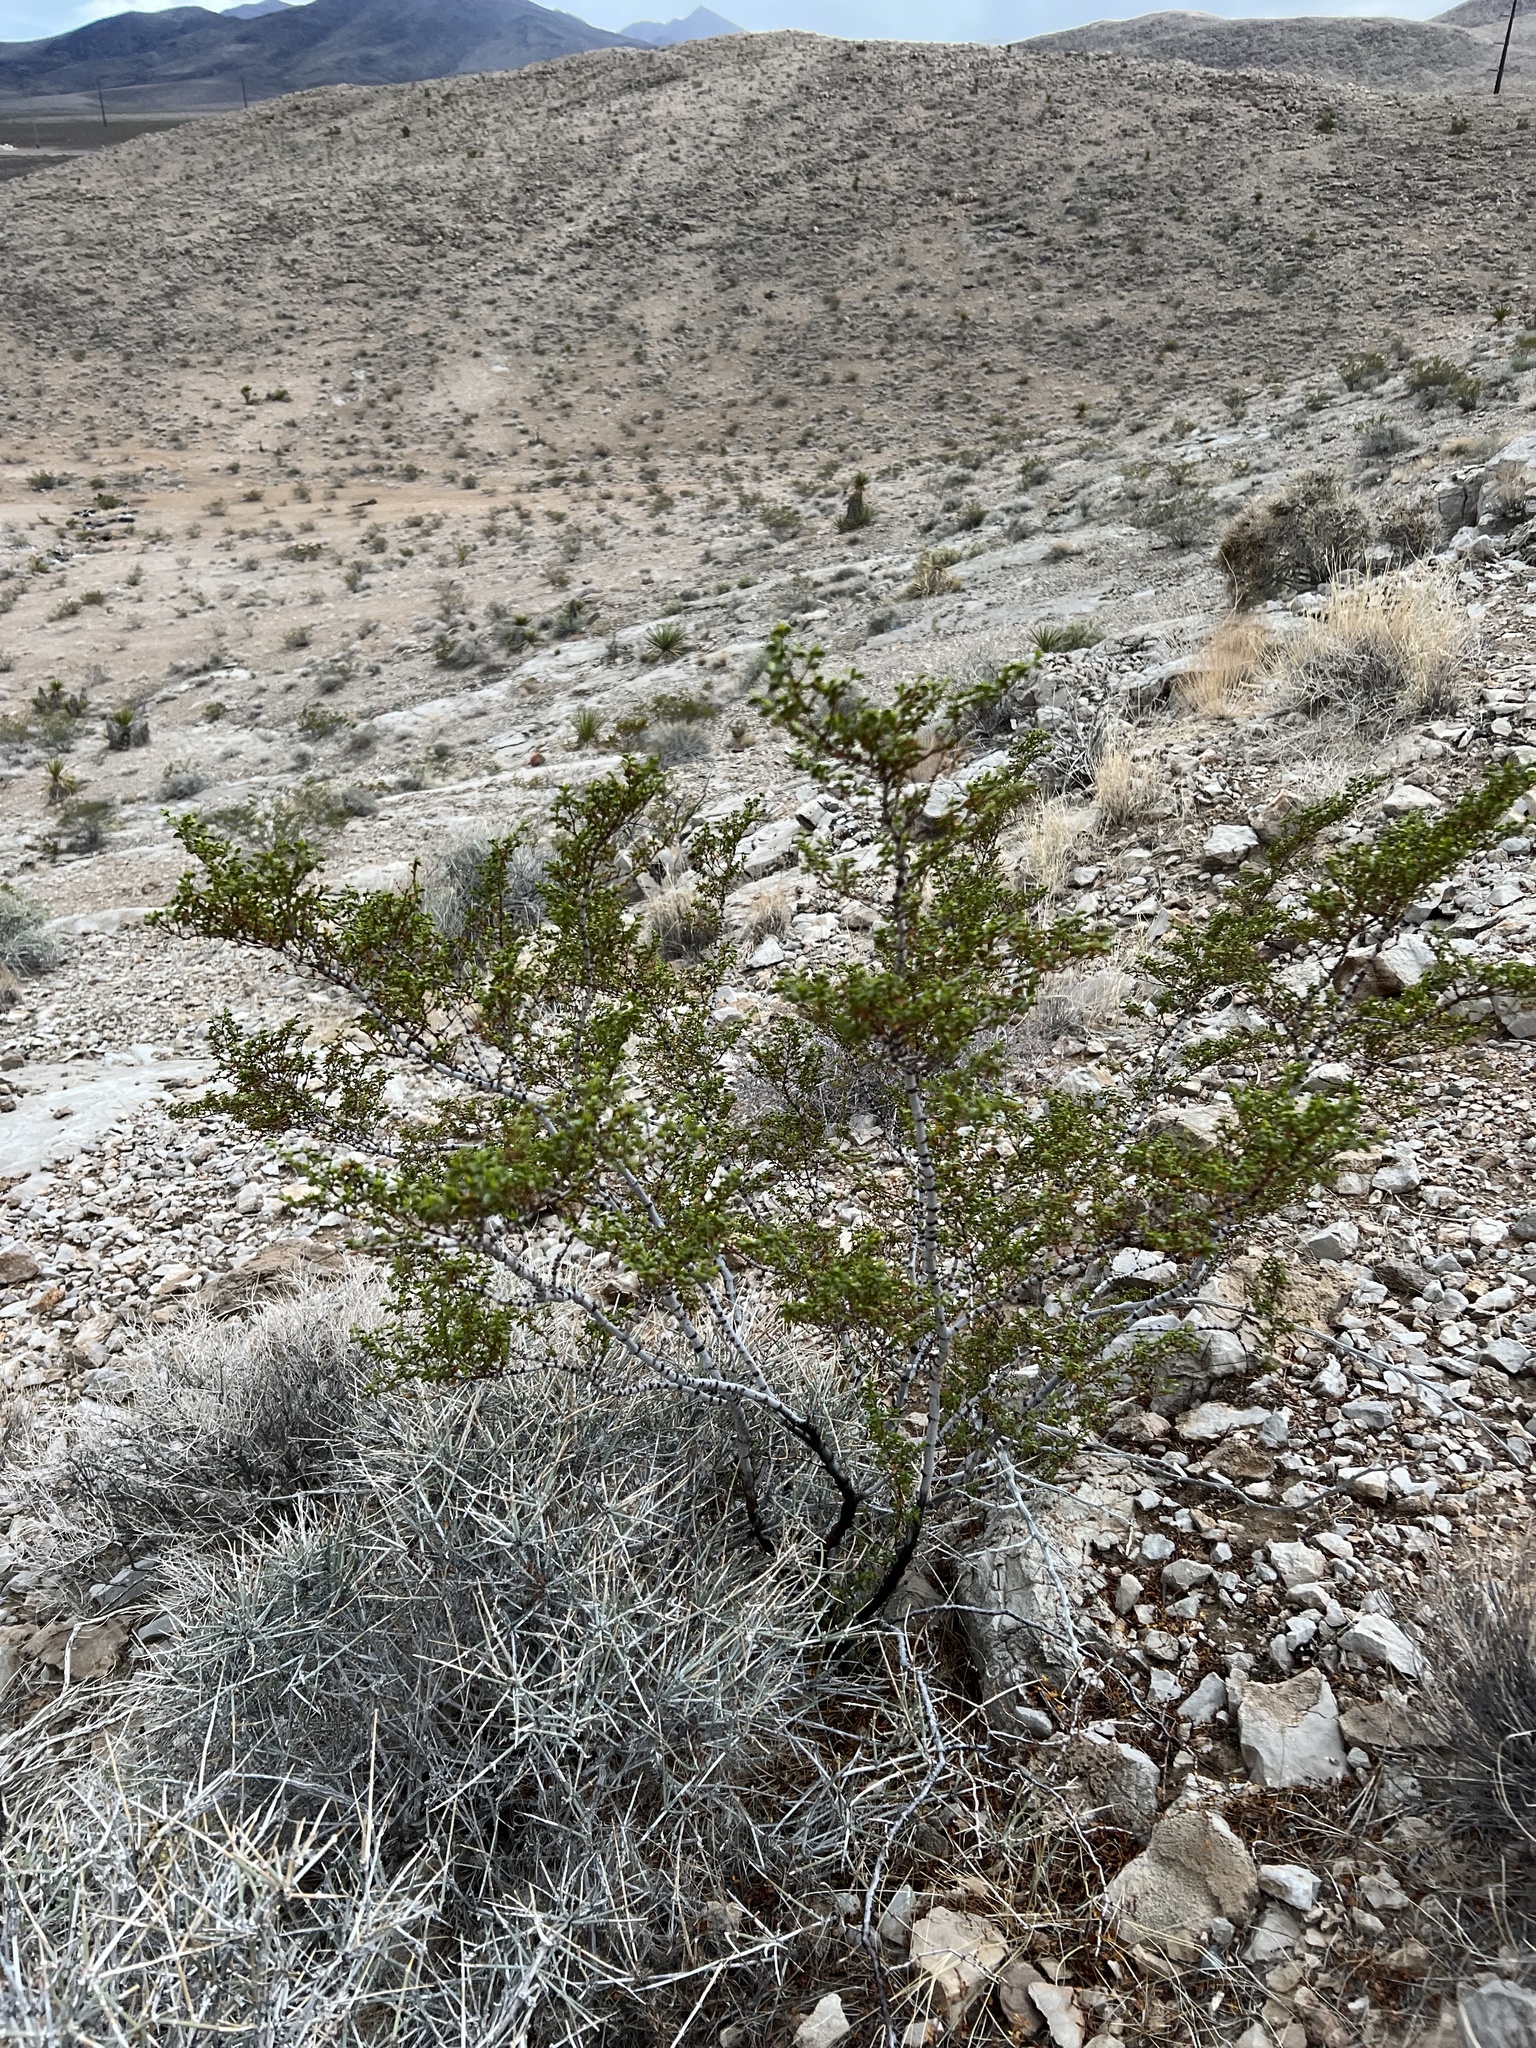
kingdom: Plantae
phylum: Tracheophyta
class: Magnoliopsida
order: Zygophyllales
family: Zygophyllaceae
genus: Larrea
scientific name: Larrea tridentata
